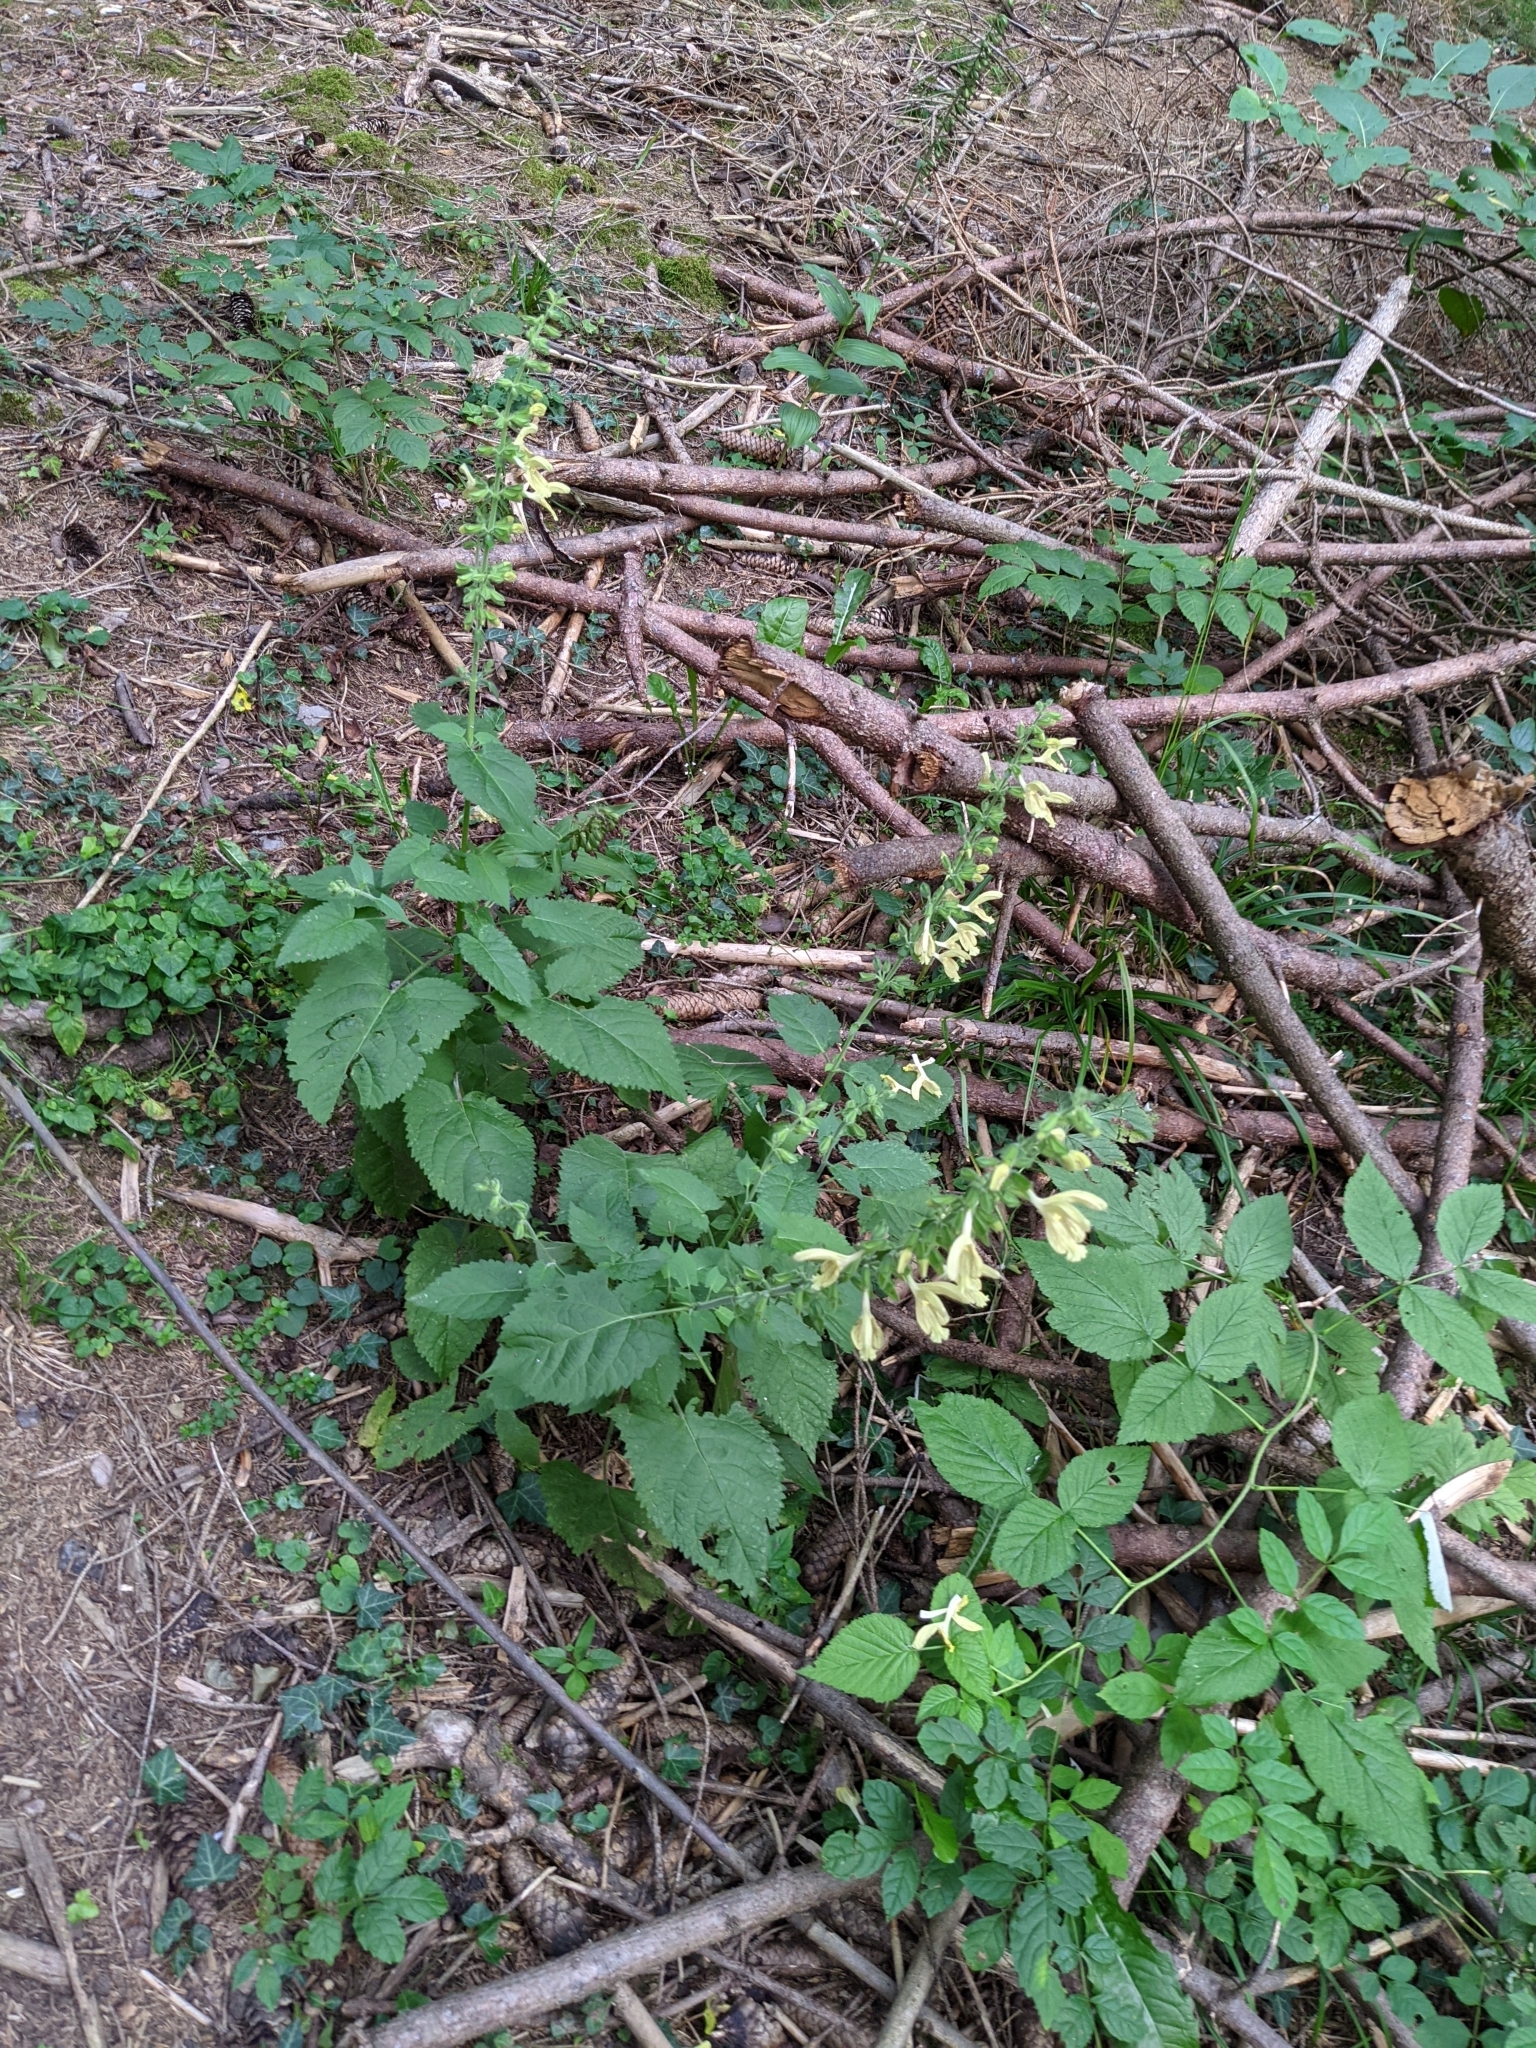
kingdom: Plantae
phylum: Tracheophyta
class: Magnoliopsida
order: Lamiales
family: Lamiaceae
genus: Salvia
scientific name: Salvia glutinosa
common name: Sticky clary
